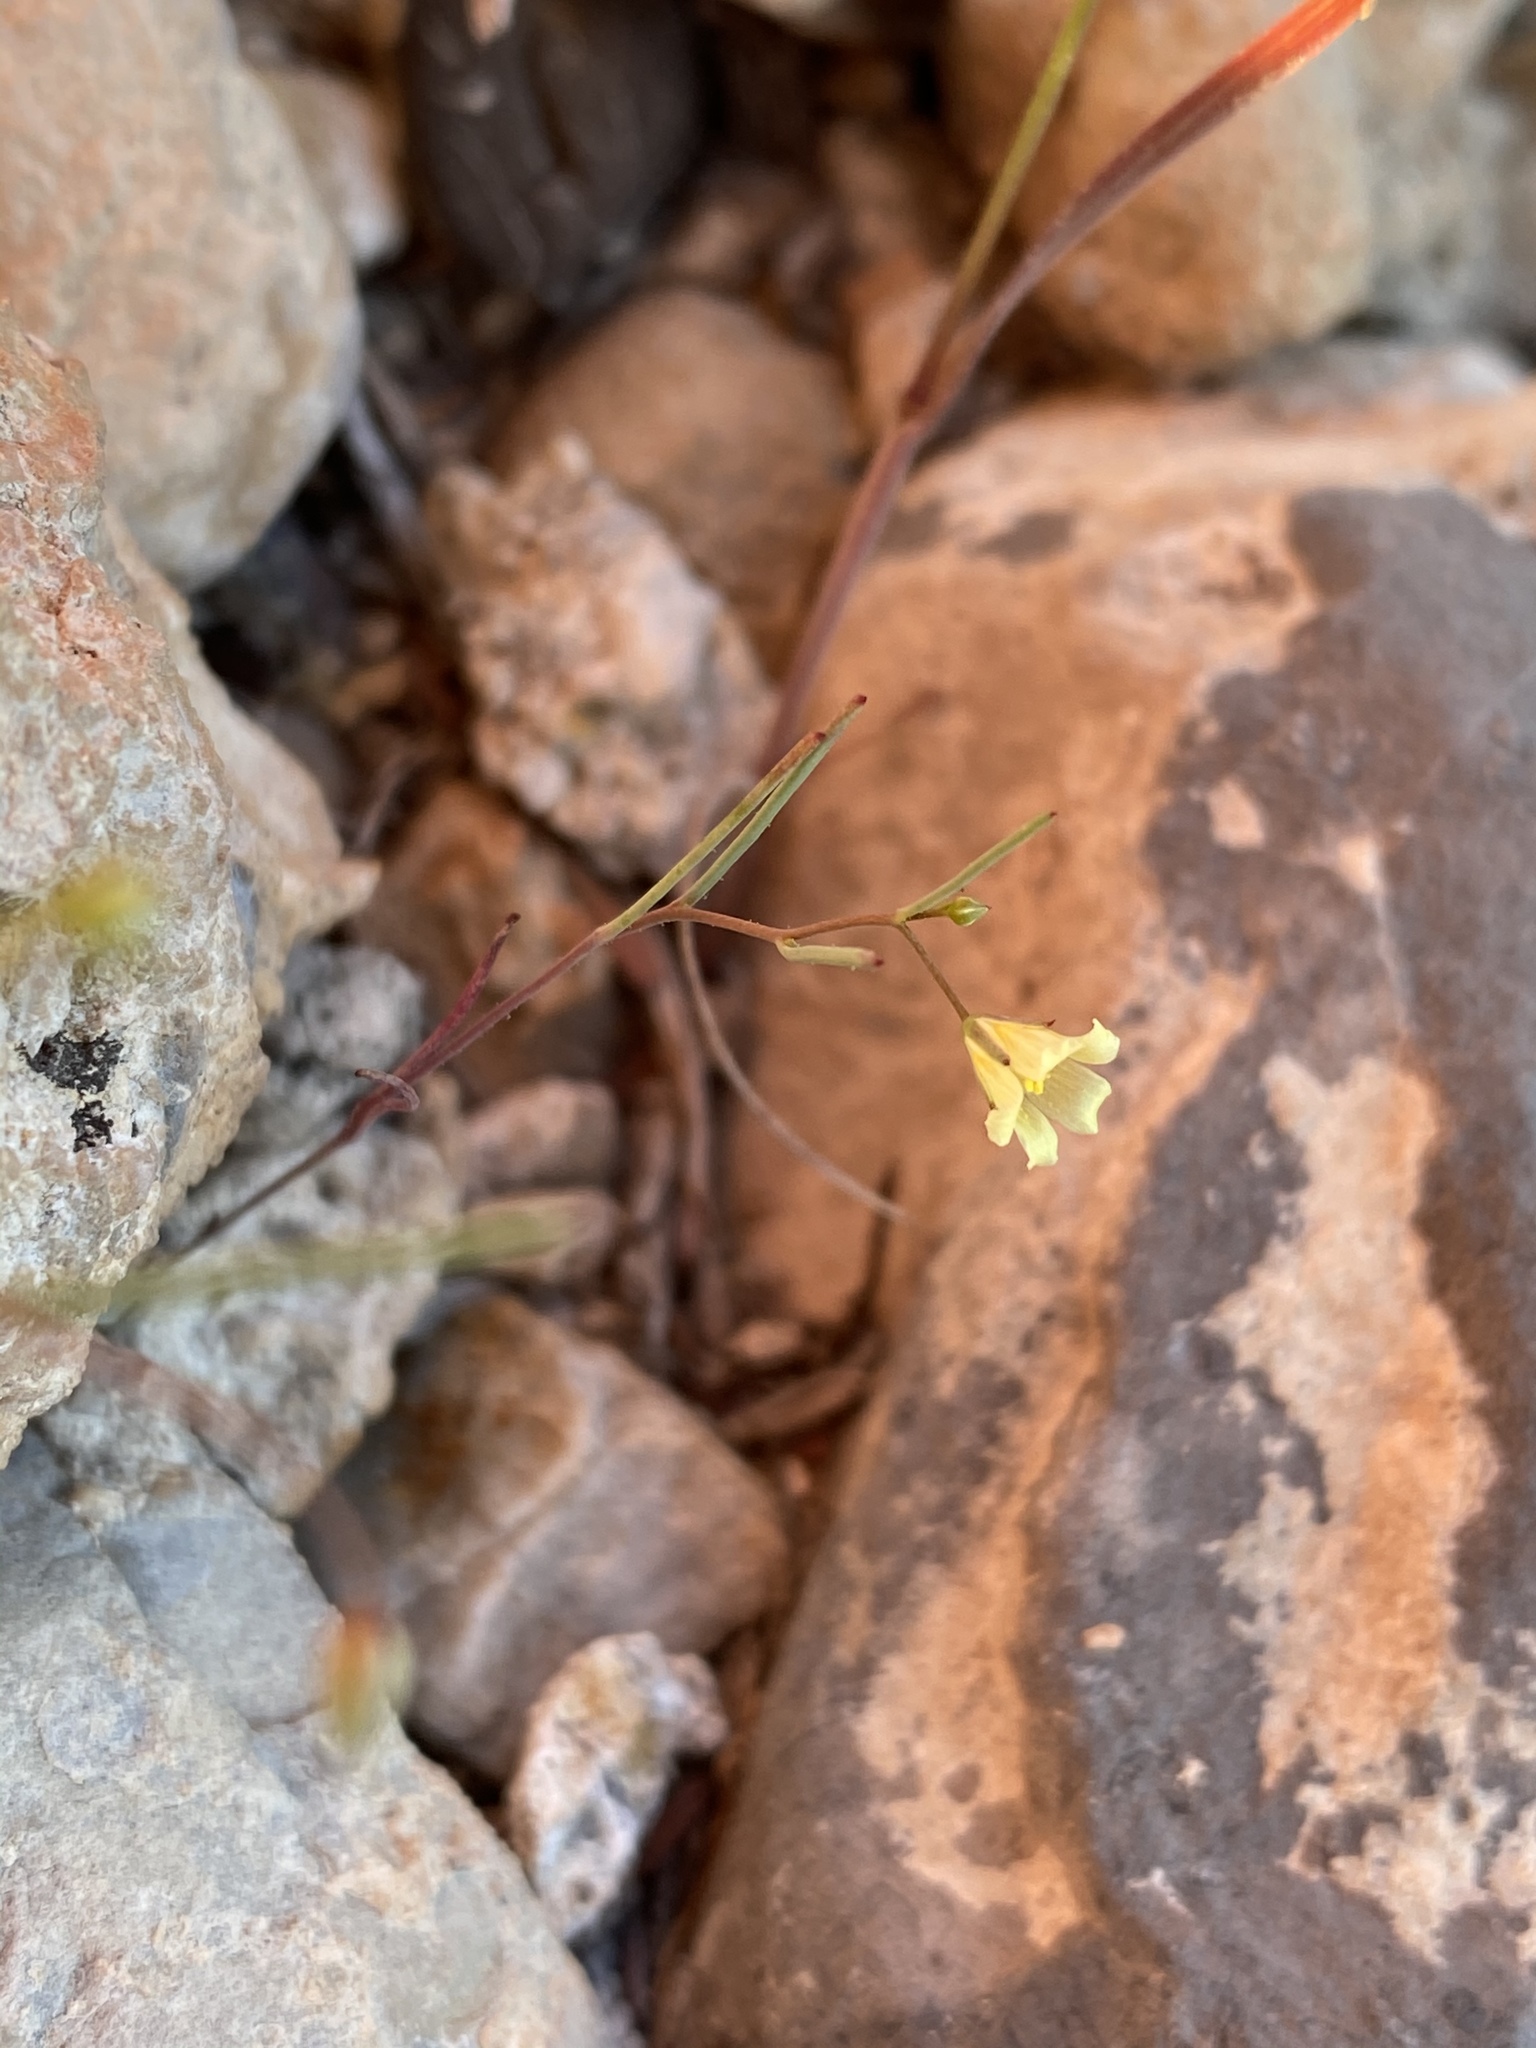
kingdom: Plantae
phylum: Tracheophyta
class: Magnoliopsida
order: Ericales
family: Polemoniaceae
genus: Linanthus
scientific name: Linanthus filiformis
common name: Yellow gilia
